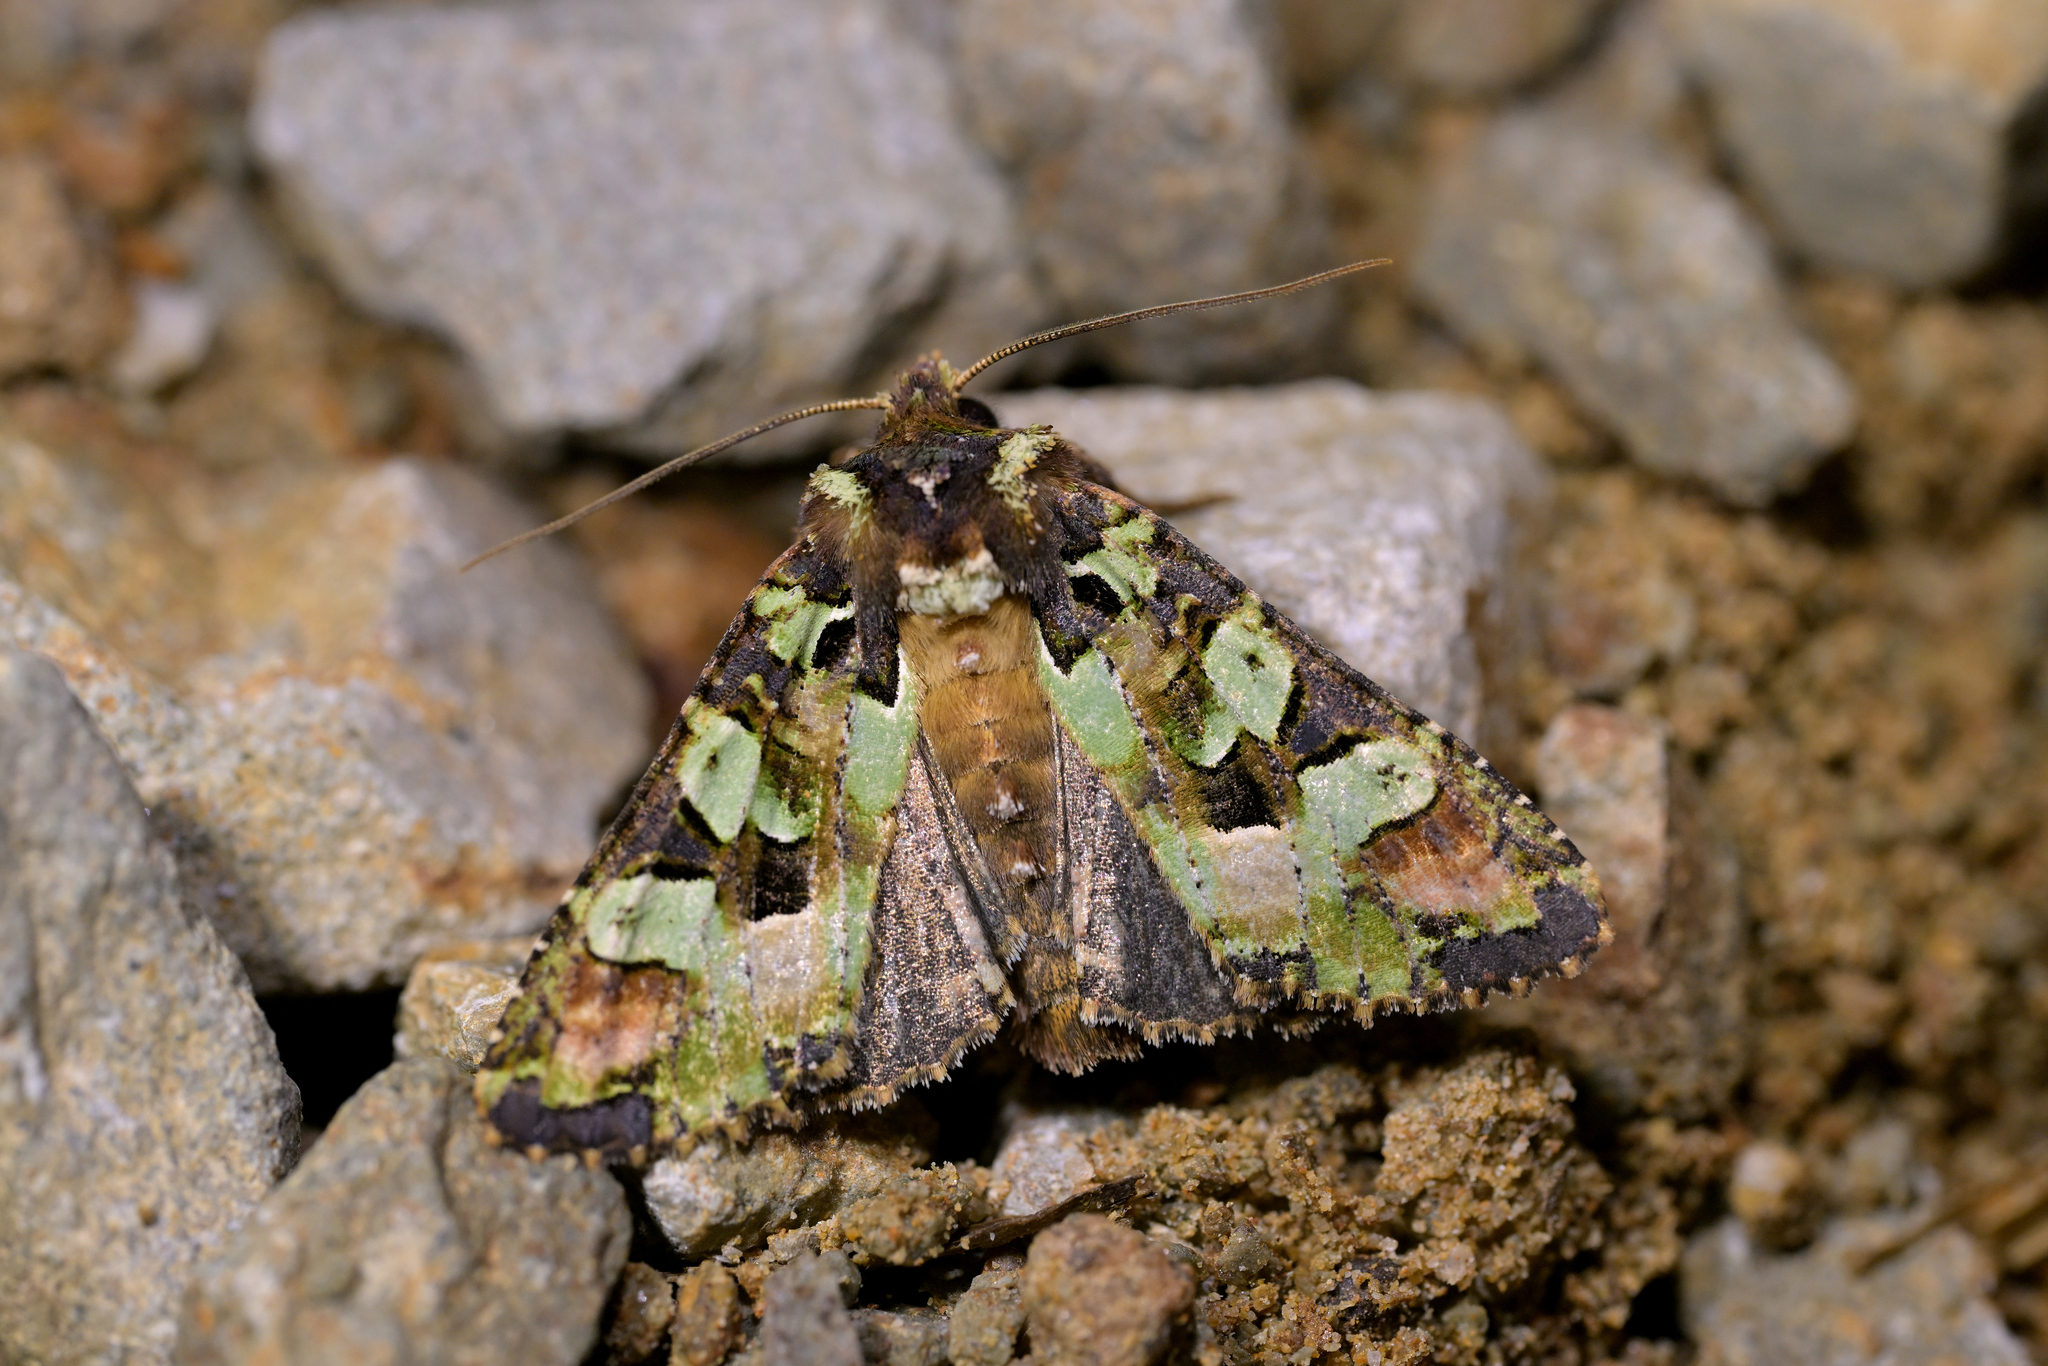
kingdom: Animalia
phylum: Arthropoda
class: Insecta
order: Lepidoptera
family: Noctuidae
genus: Meterana
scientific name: Meterana pauca
